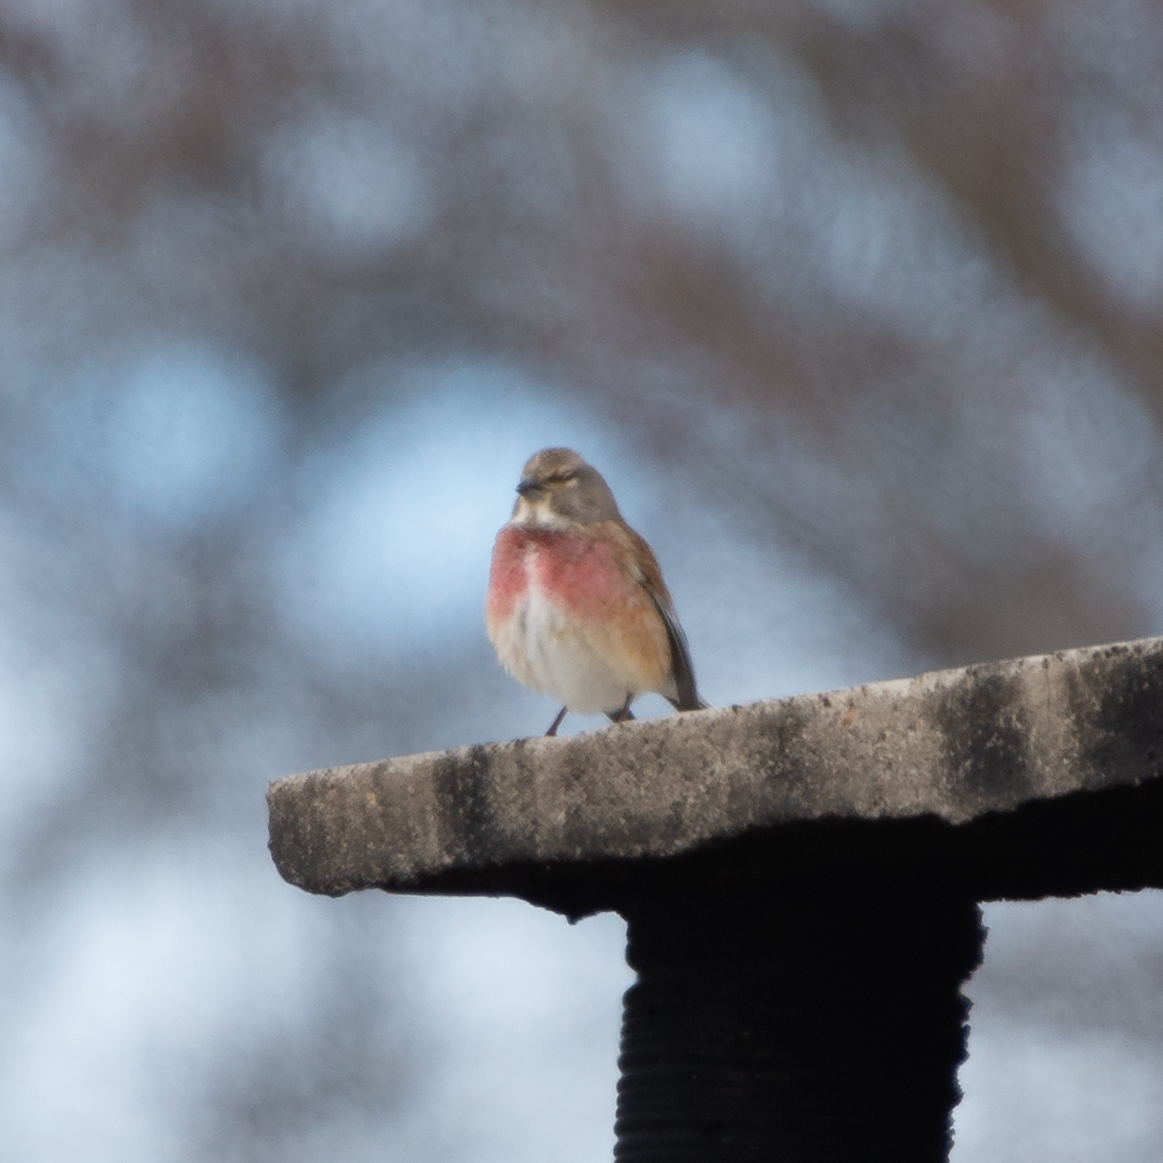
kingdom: Animalia
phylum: Chordata
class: Aves
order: Passeriformes
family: Fringillidae
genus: Linaria
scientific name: Linaria cannabina
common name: Common linnet
